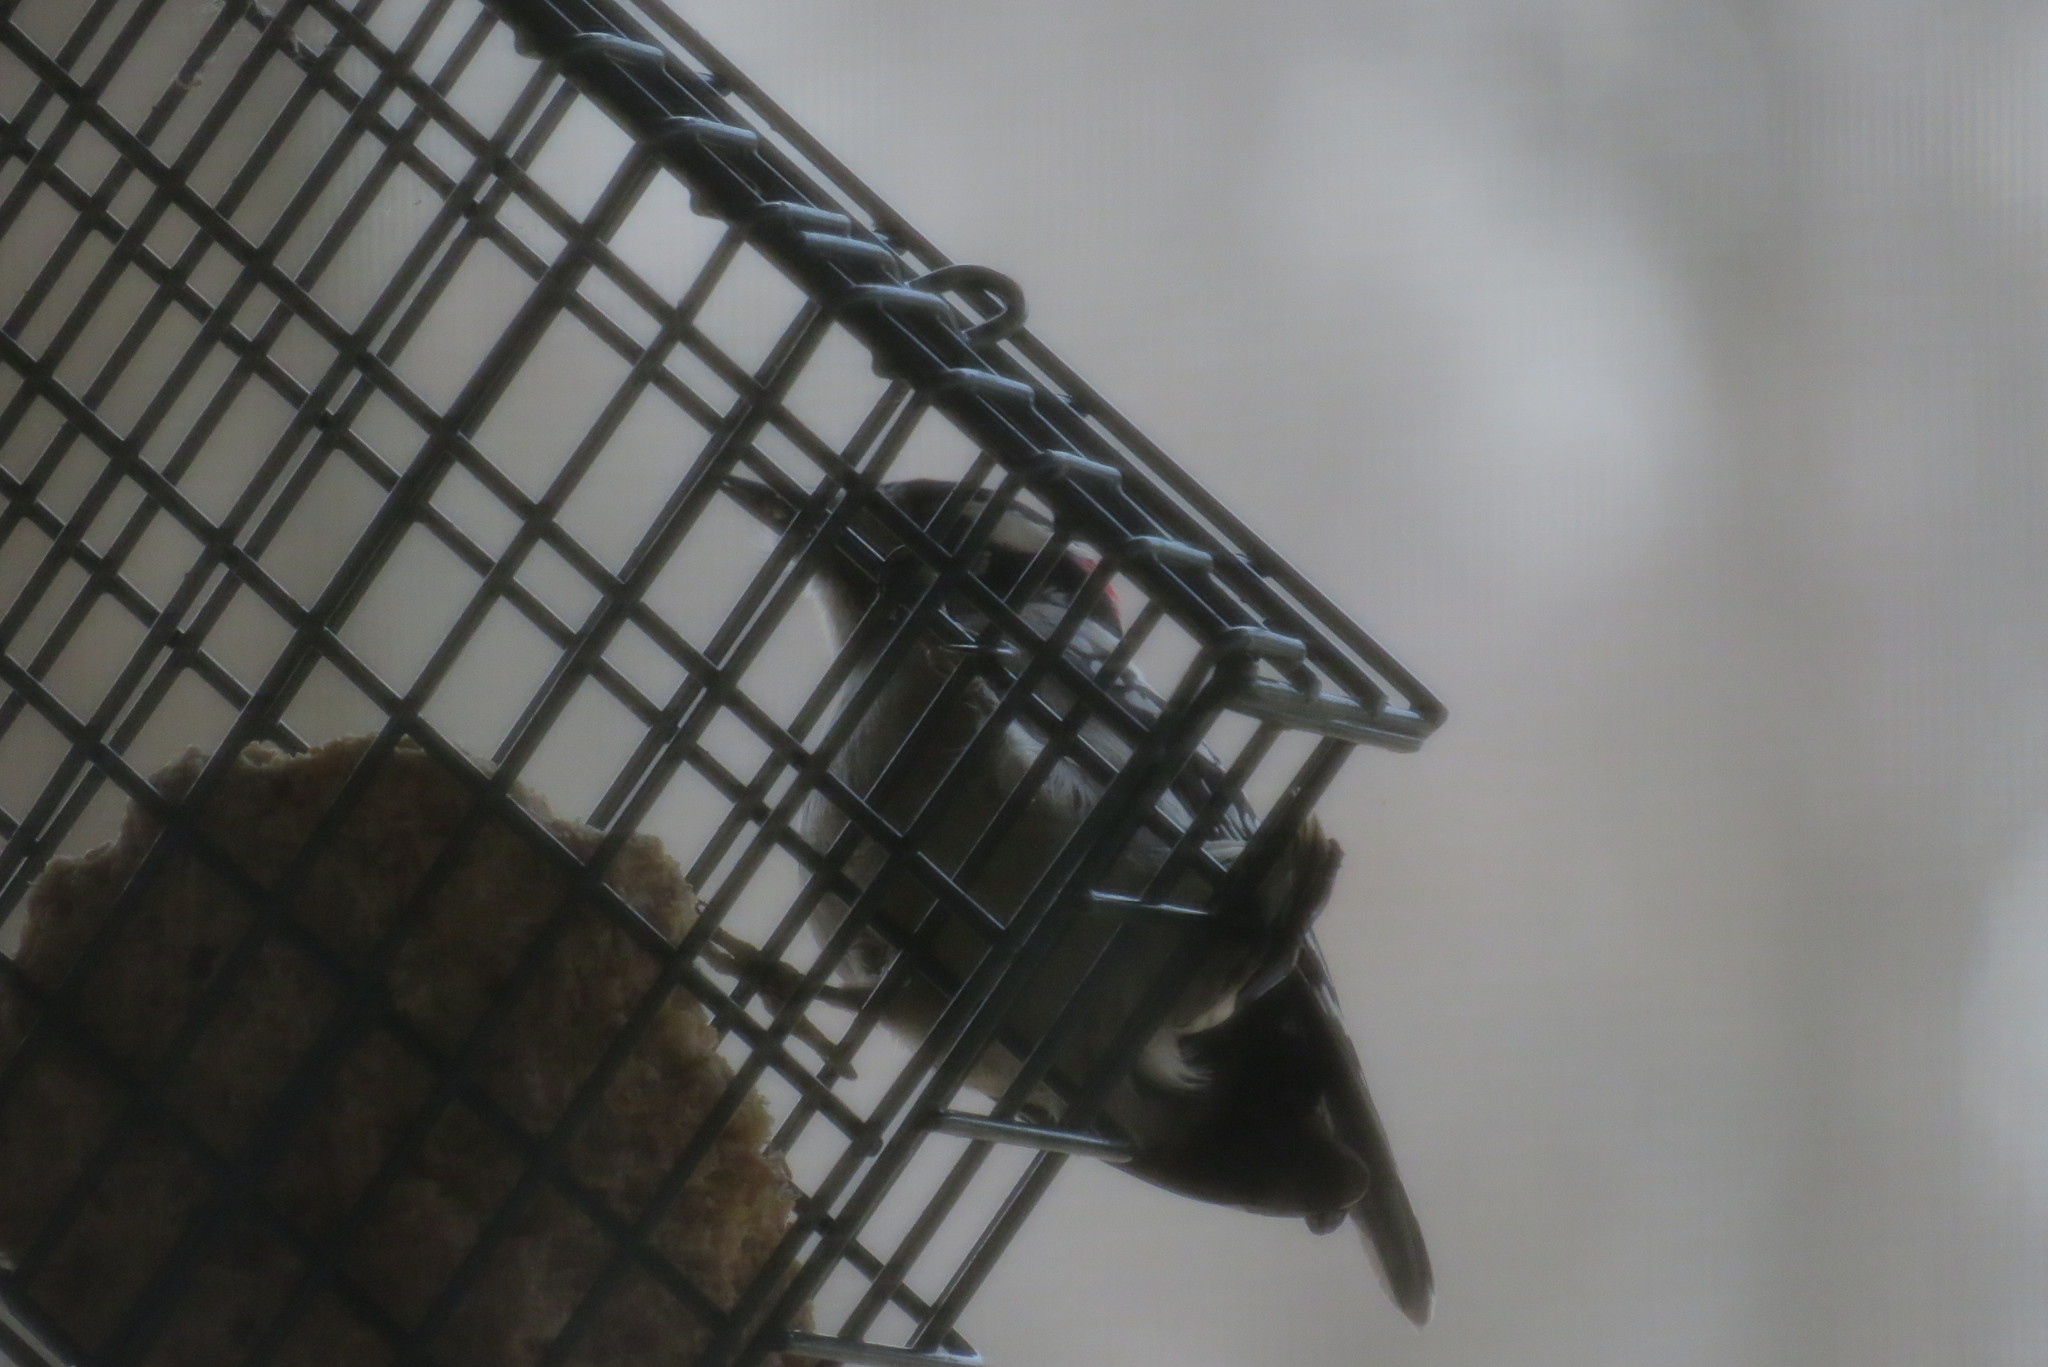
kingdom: Animalia
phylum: Chordata
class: Aves
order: Piciformes
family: Picidae
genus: Dryobates
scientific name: Dryobates pubescens
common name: Downy woodpecker
